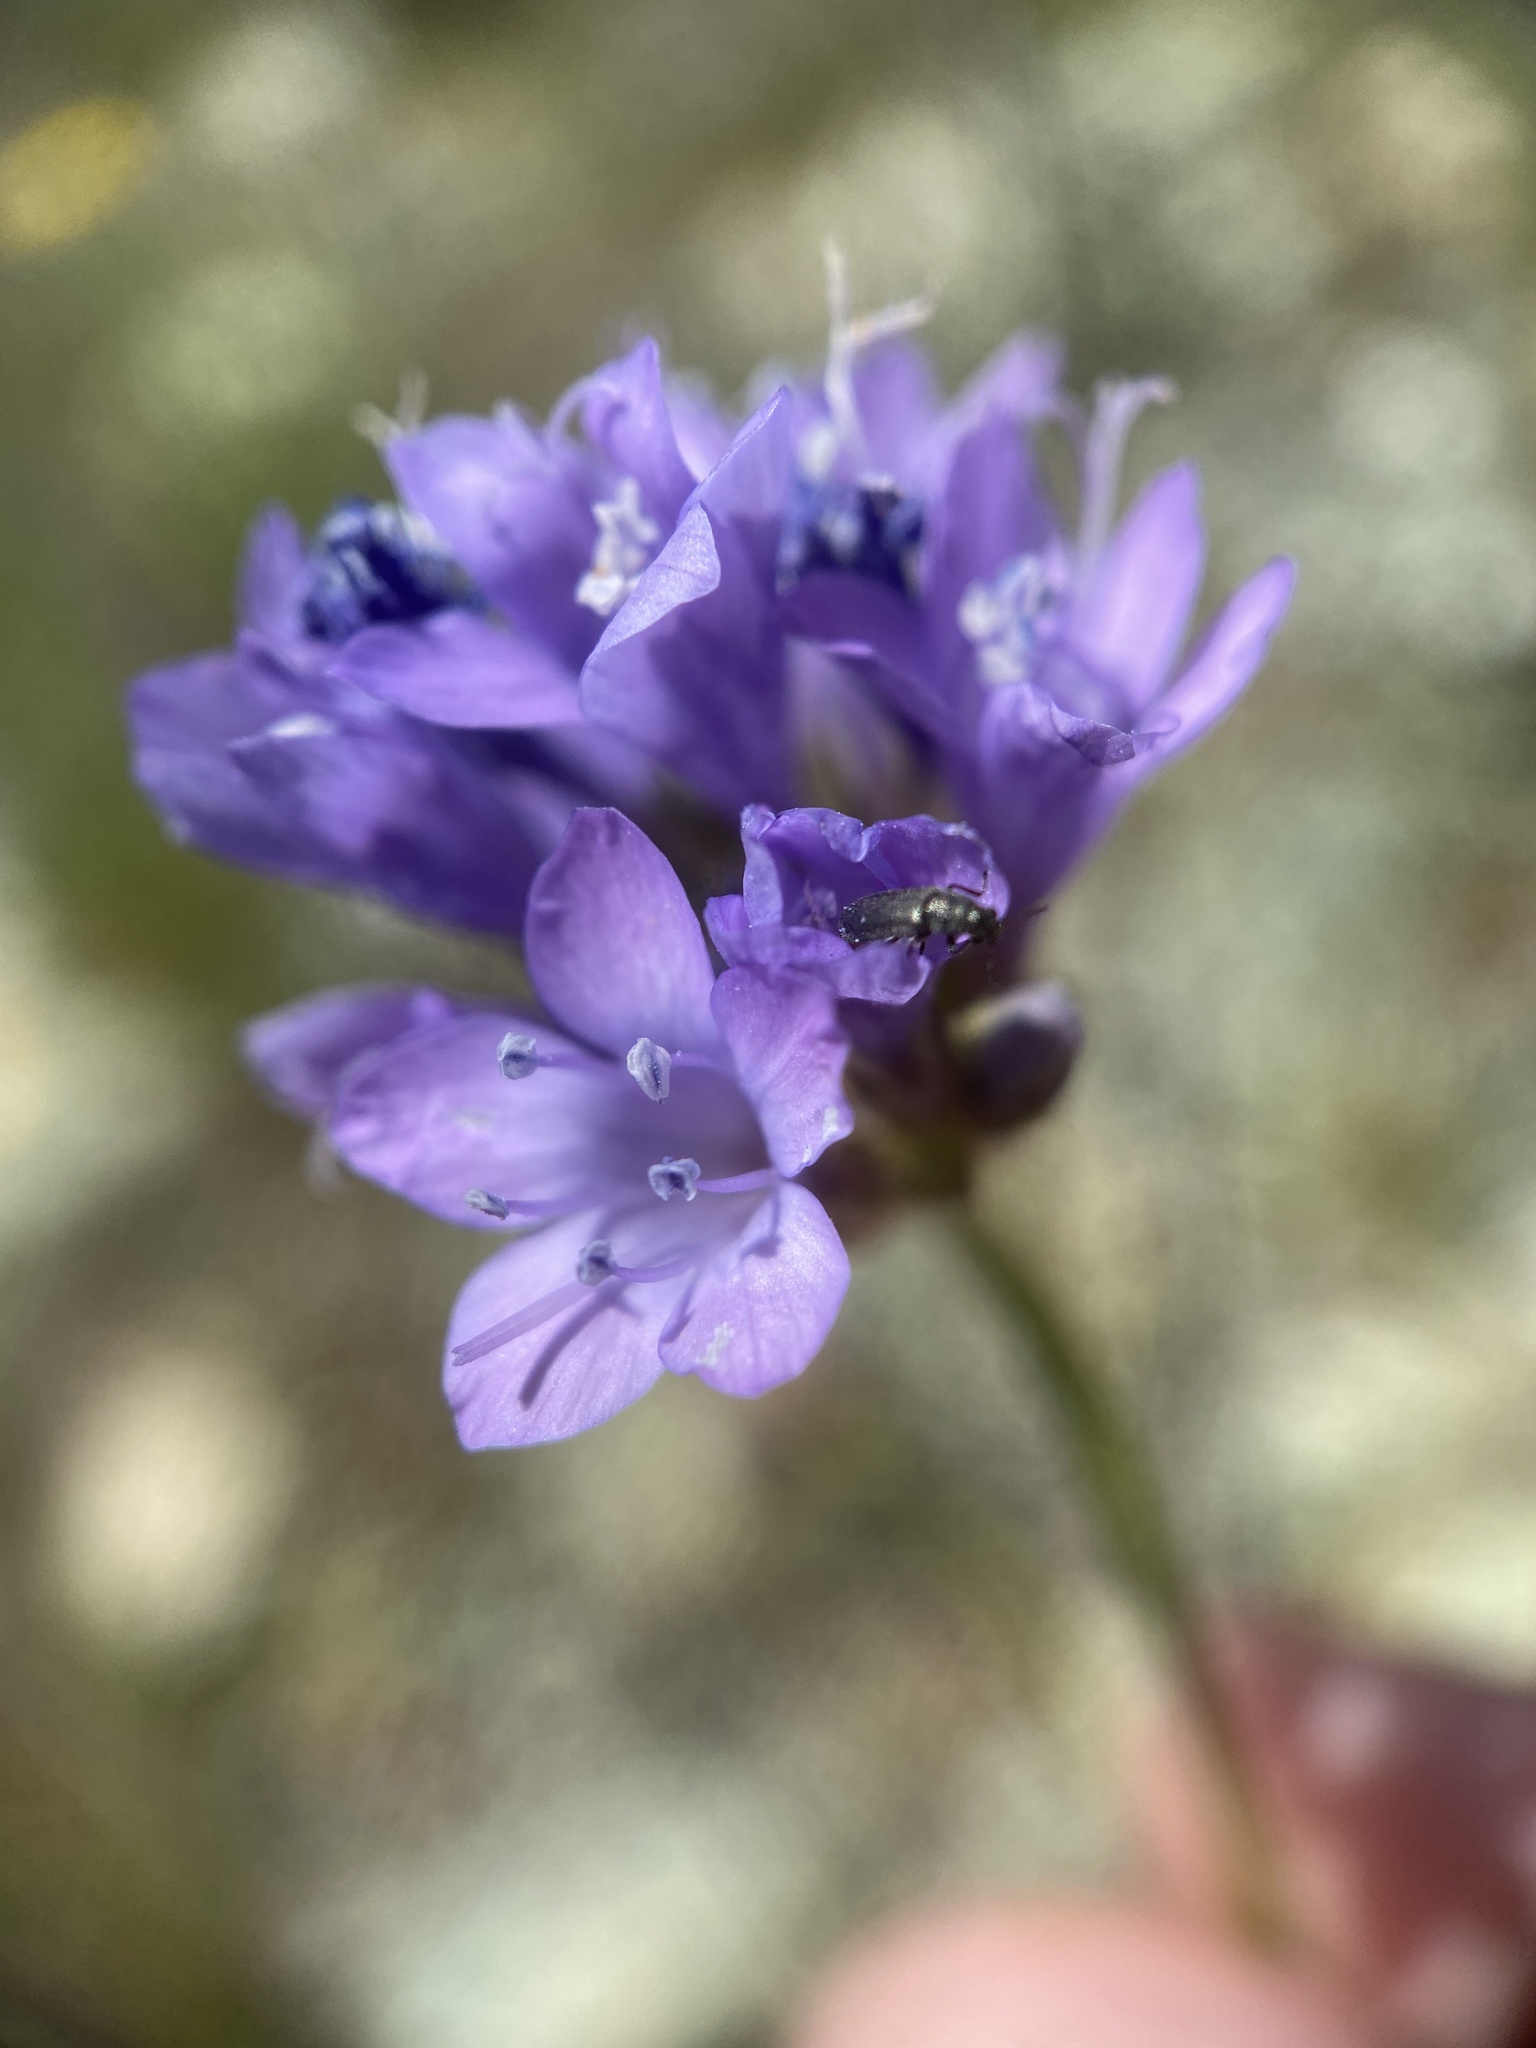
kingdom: Plantae
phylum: Tracheophyta
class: Magnoliopsida
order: Ericales
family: Polemoniaceae
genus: Gilia
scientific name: Gilia achilleifolia
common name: California gily-flower
